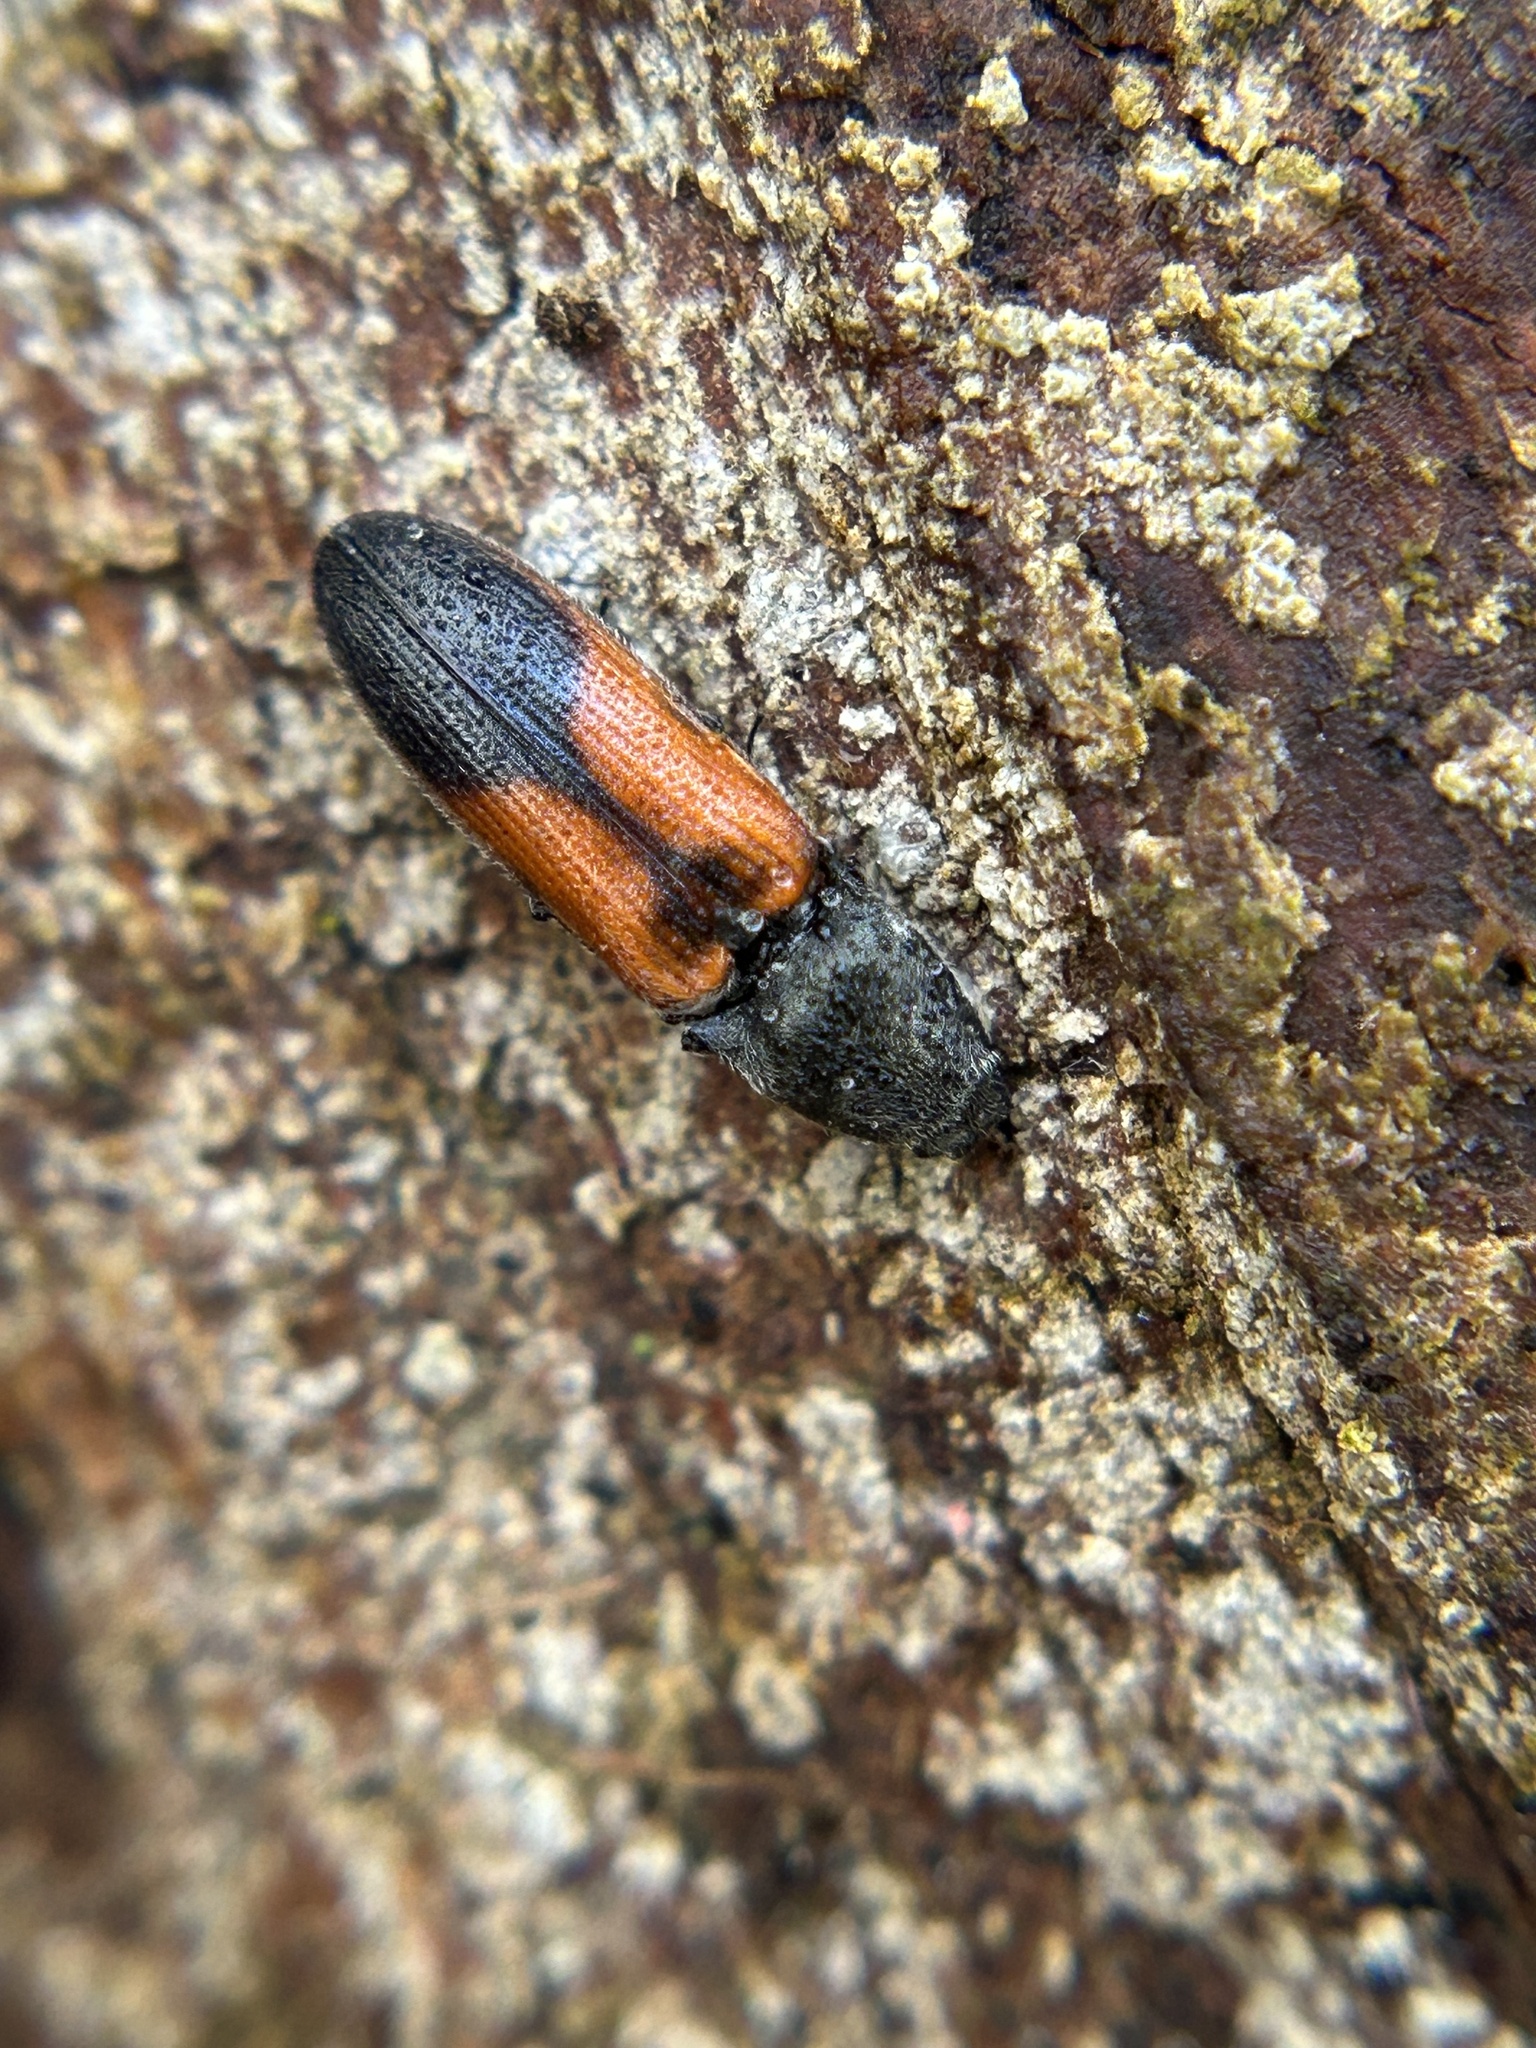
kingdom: Animalia
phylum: Arthropoda
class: Insecta
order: Coleoptera
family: Elateridae
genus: Gambrinus
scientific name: Gambrinus
